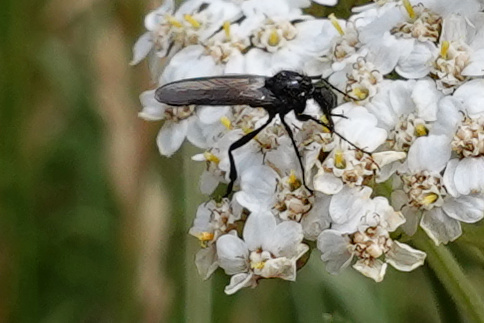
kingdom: Animalia
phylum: Arthropoda
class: Insecta
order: Diptera
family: Bibionidae
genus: Dilophus
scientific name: Dilophus nigrostigma
